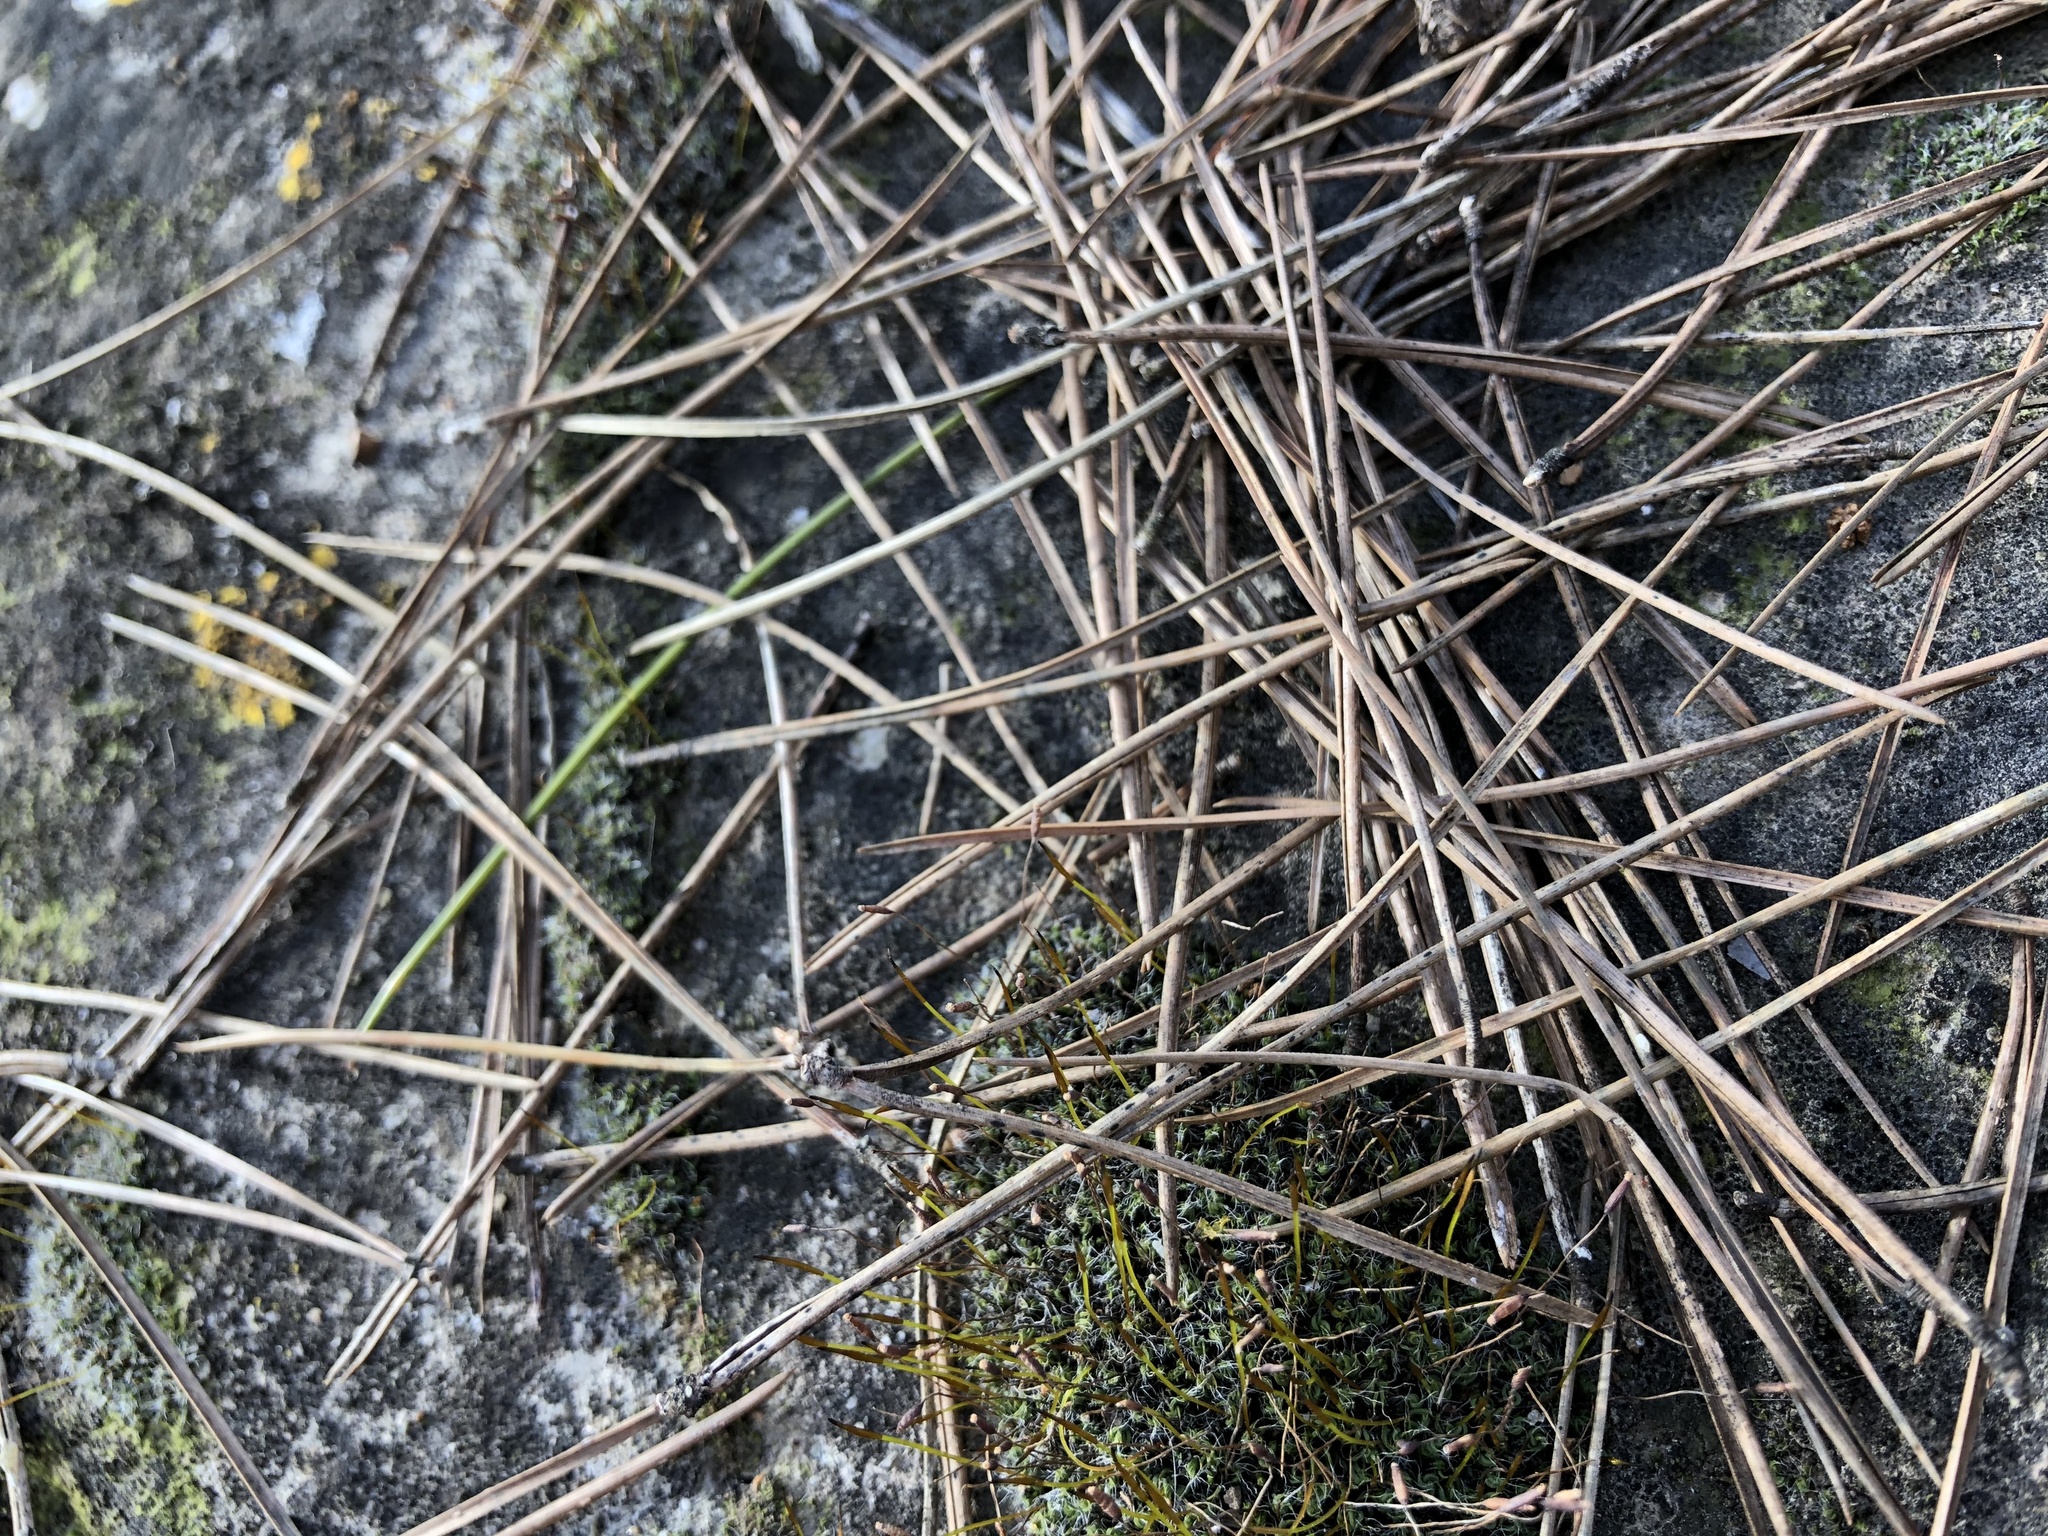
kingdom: Plantae
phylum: Bryophyta
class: Bryopsida
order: Pottiales
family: Pottiaceae
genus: Tortula
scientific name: Tortula muralis
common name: Wall screw-moss
